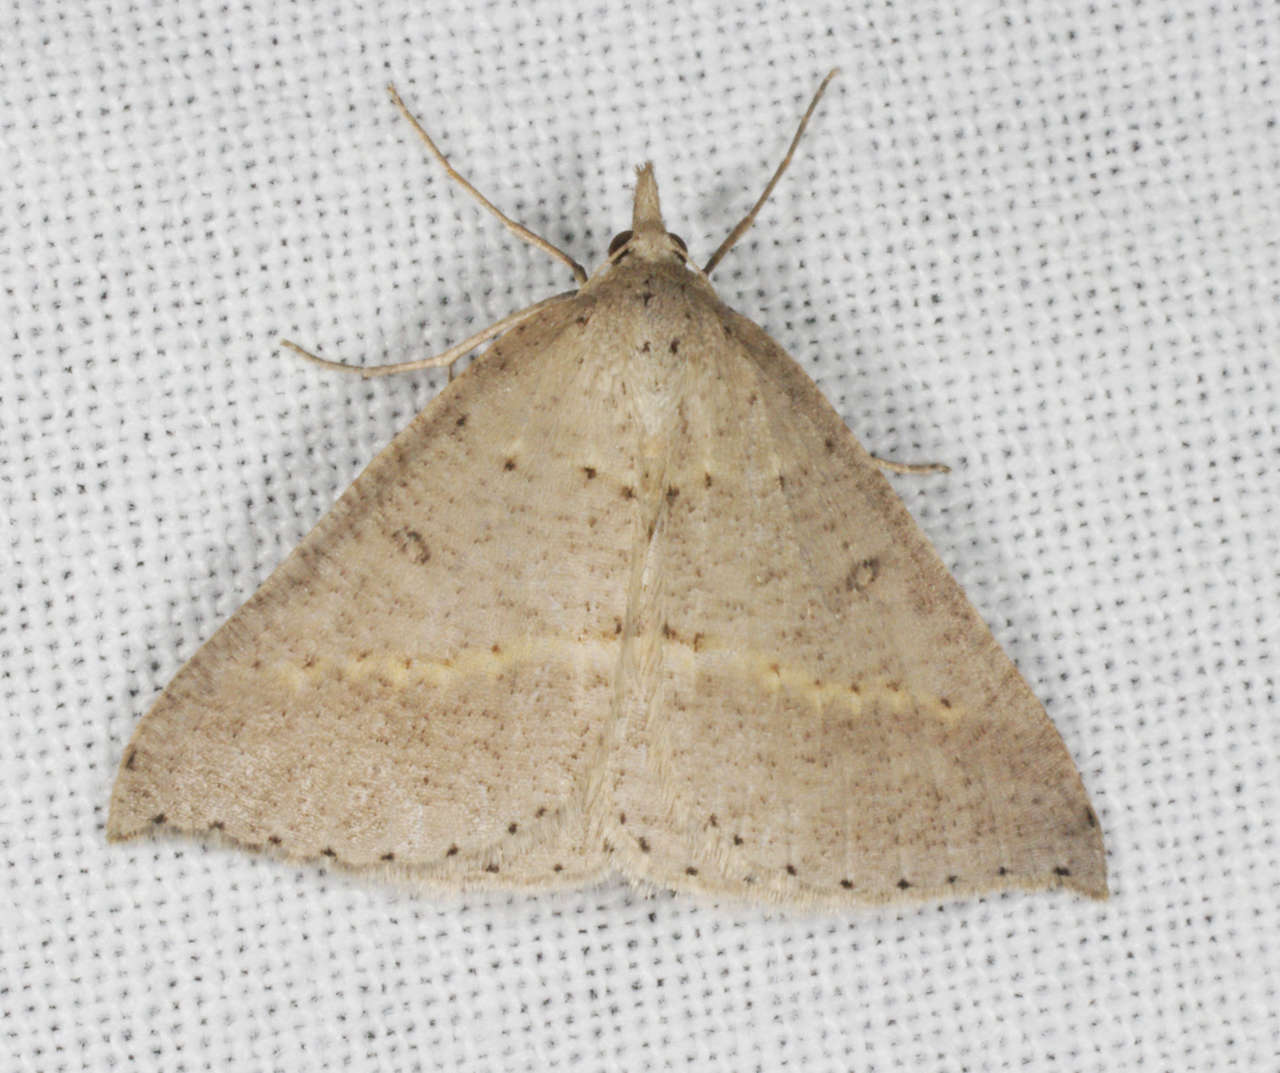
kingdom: Animalia
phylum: Arthropoda
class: Insecta
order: Lepidoptera
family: Geometridae
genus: Nearcha
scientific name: Nearcha nullata
